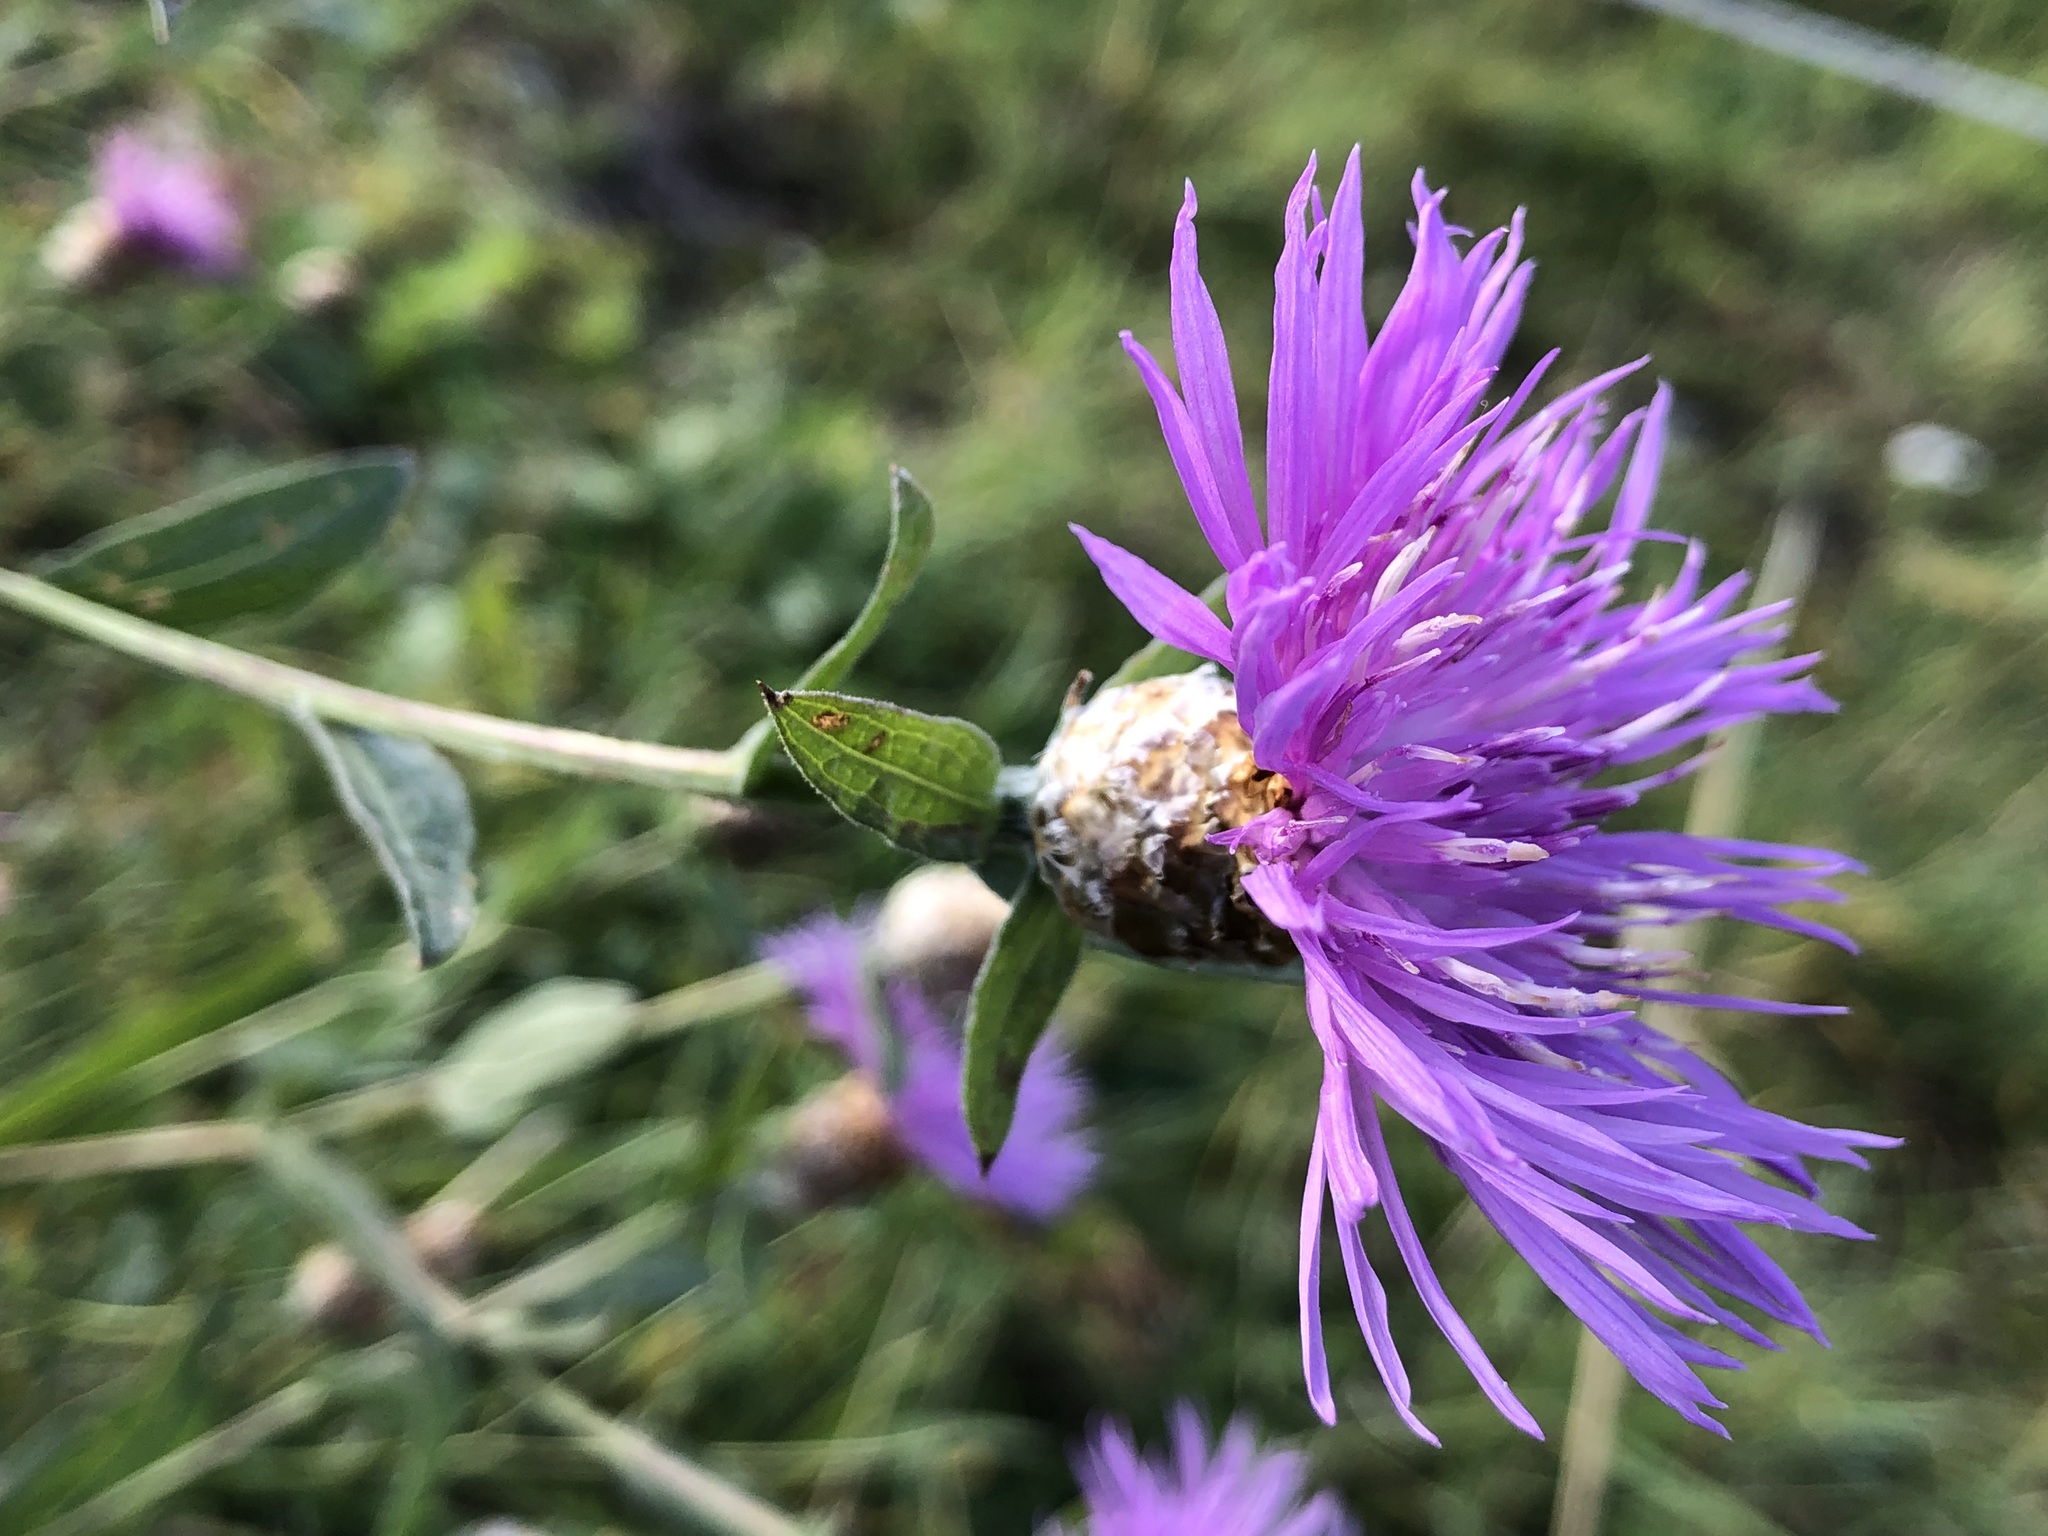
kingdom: Plantae
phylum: Tracheophyta
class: Magnoliopsida
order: Asterales
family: Asteraceae
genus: Centaurea
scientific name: Centaurea jacea
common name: Brown knapweed
